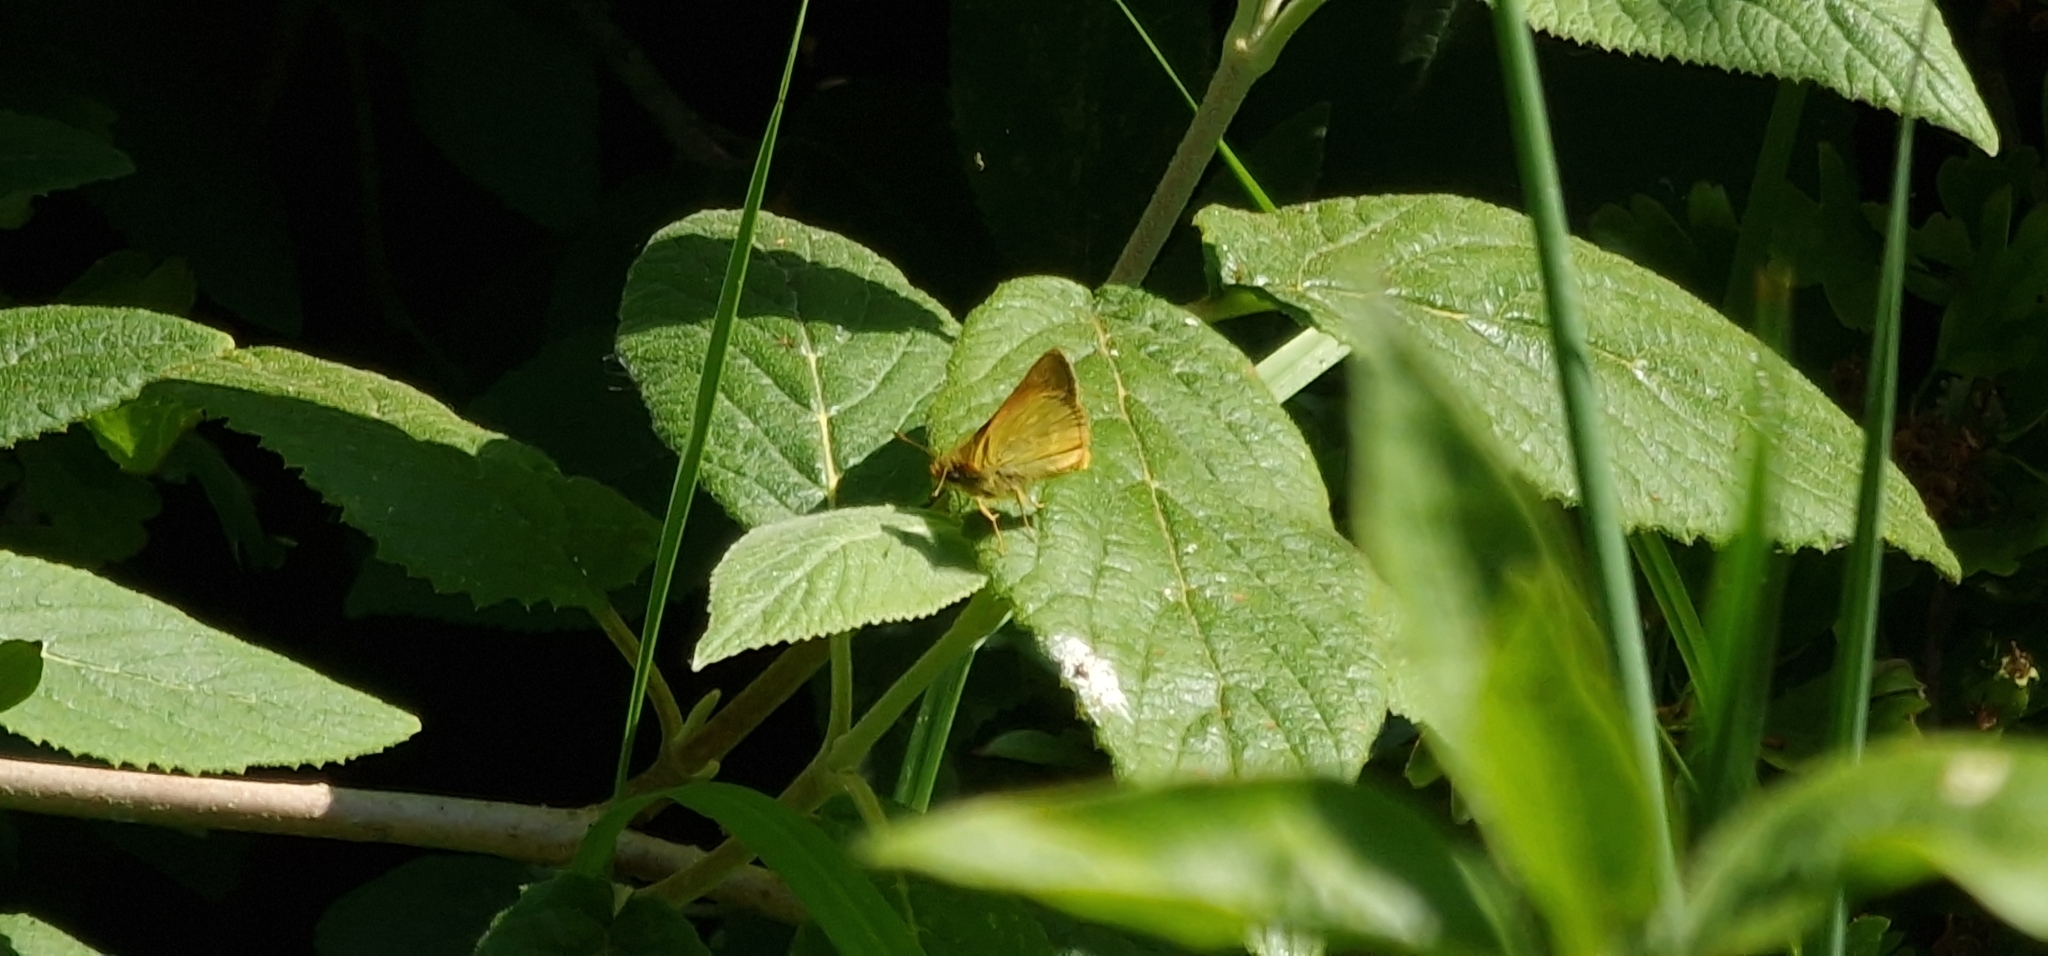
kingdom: Animalia
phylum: Arthropoda
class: Insecta
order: Lepidoptera
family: Hesperiidae
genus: Ochlodes
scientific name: Ochlodes venata
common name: Large skipper
